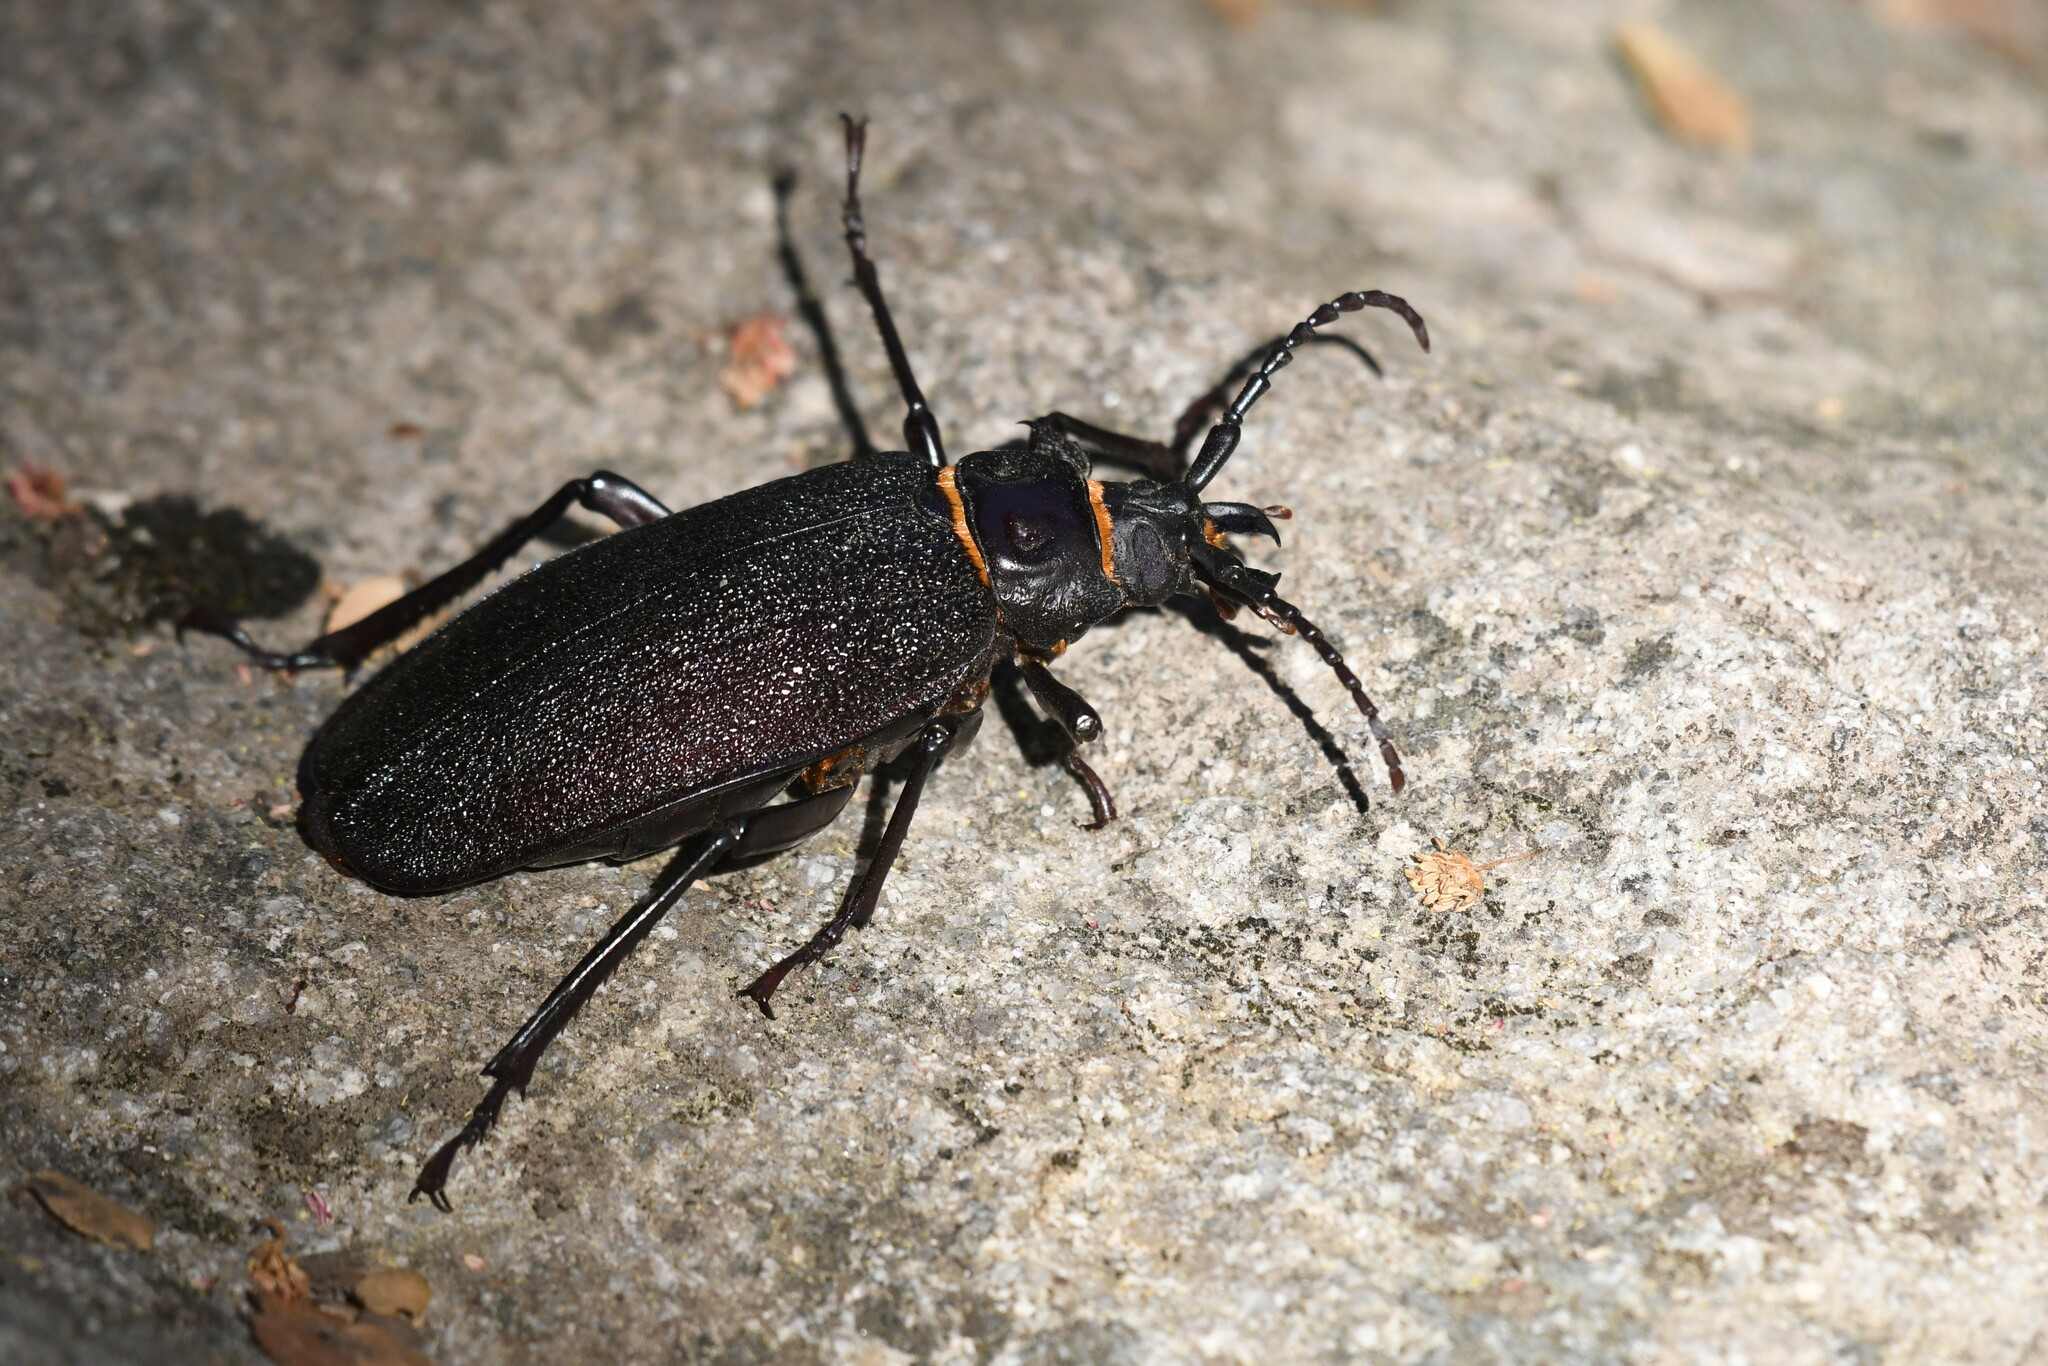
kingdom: Animalia
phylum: Arthropoda
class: Insecta
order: Coleoptera
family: Cerambycidae
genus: Acanthinodera
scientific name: Acanthinodera cumingii
